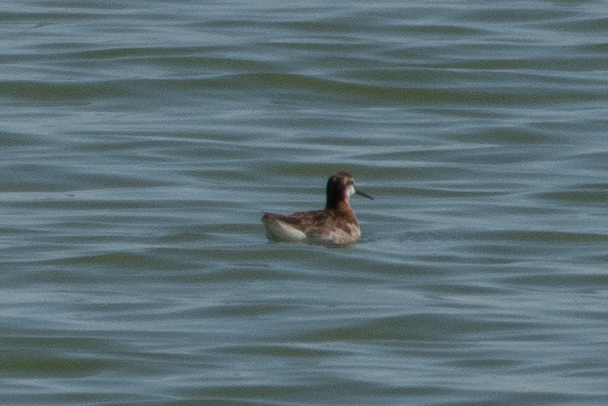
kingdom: Animalia
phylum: Chordata
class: Aves
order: Charadriiformes
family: Scolopacidae
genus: Phalaropus
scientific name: Phalaropus tricolor
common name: Wilson's phalarope
